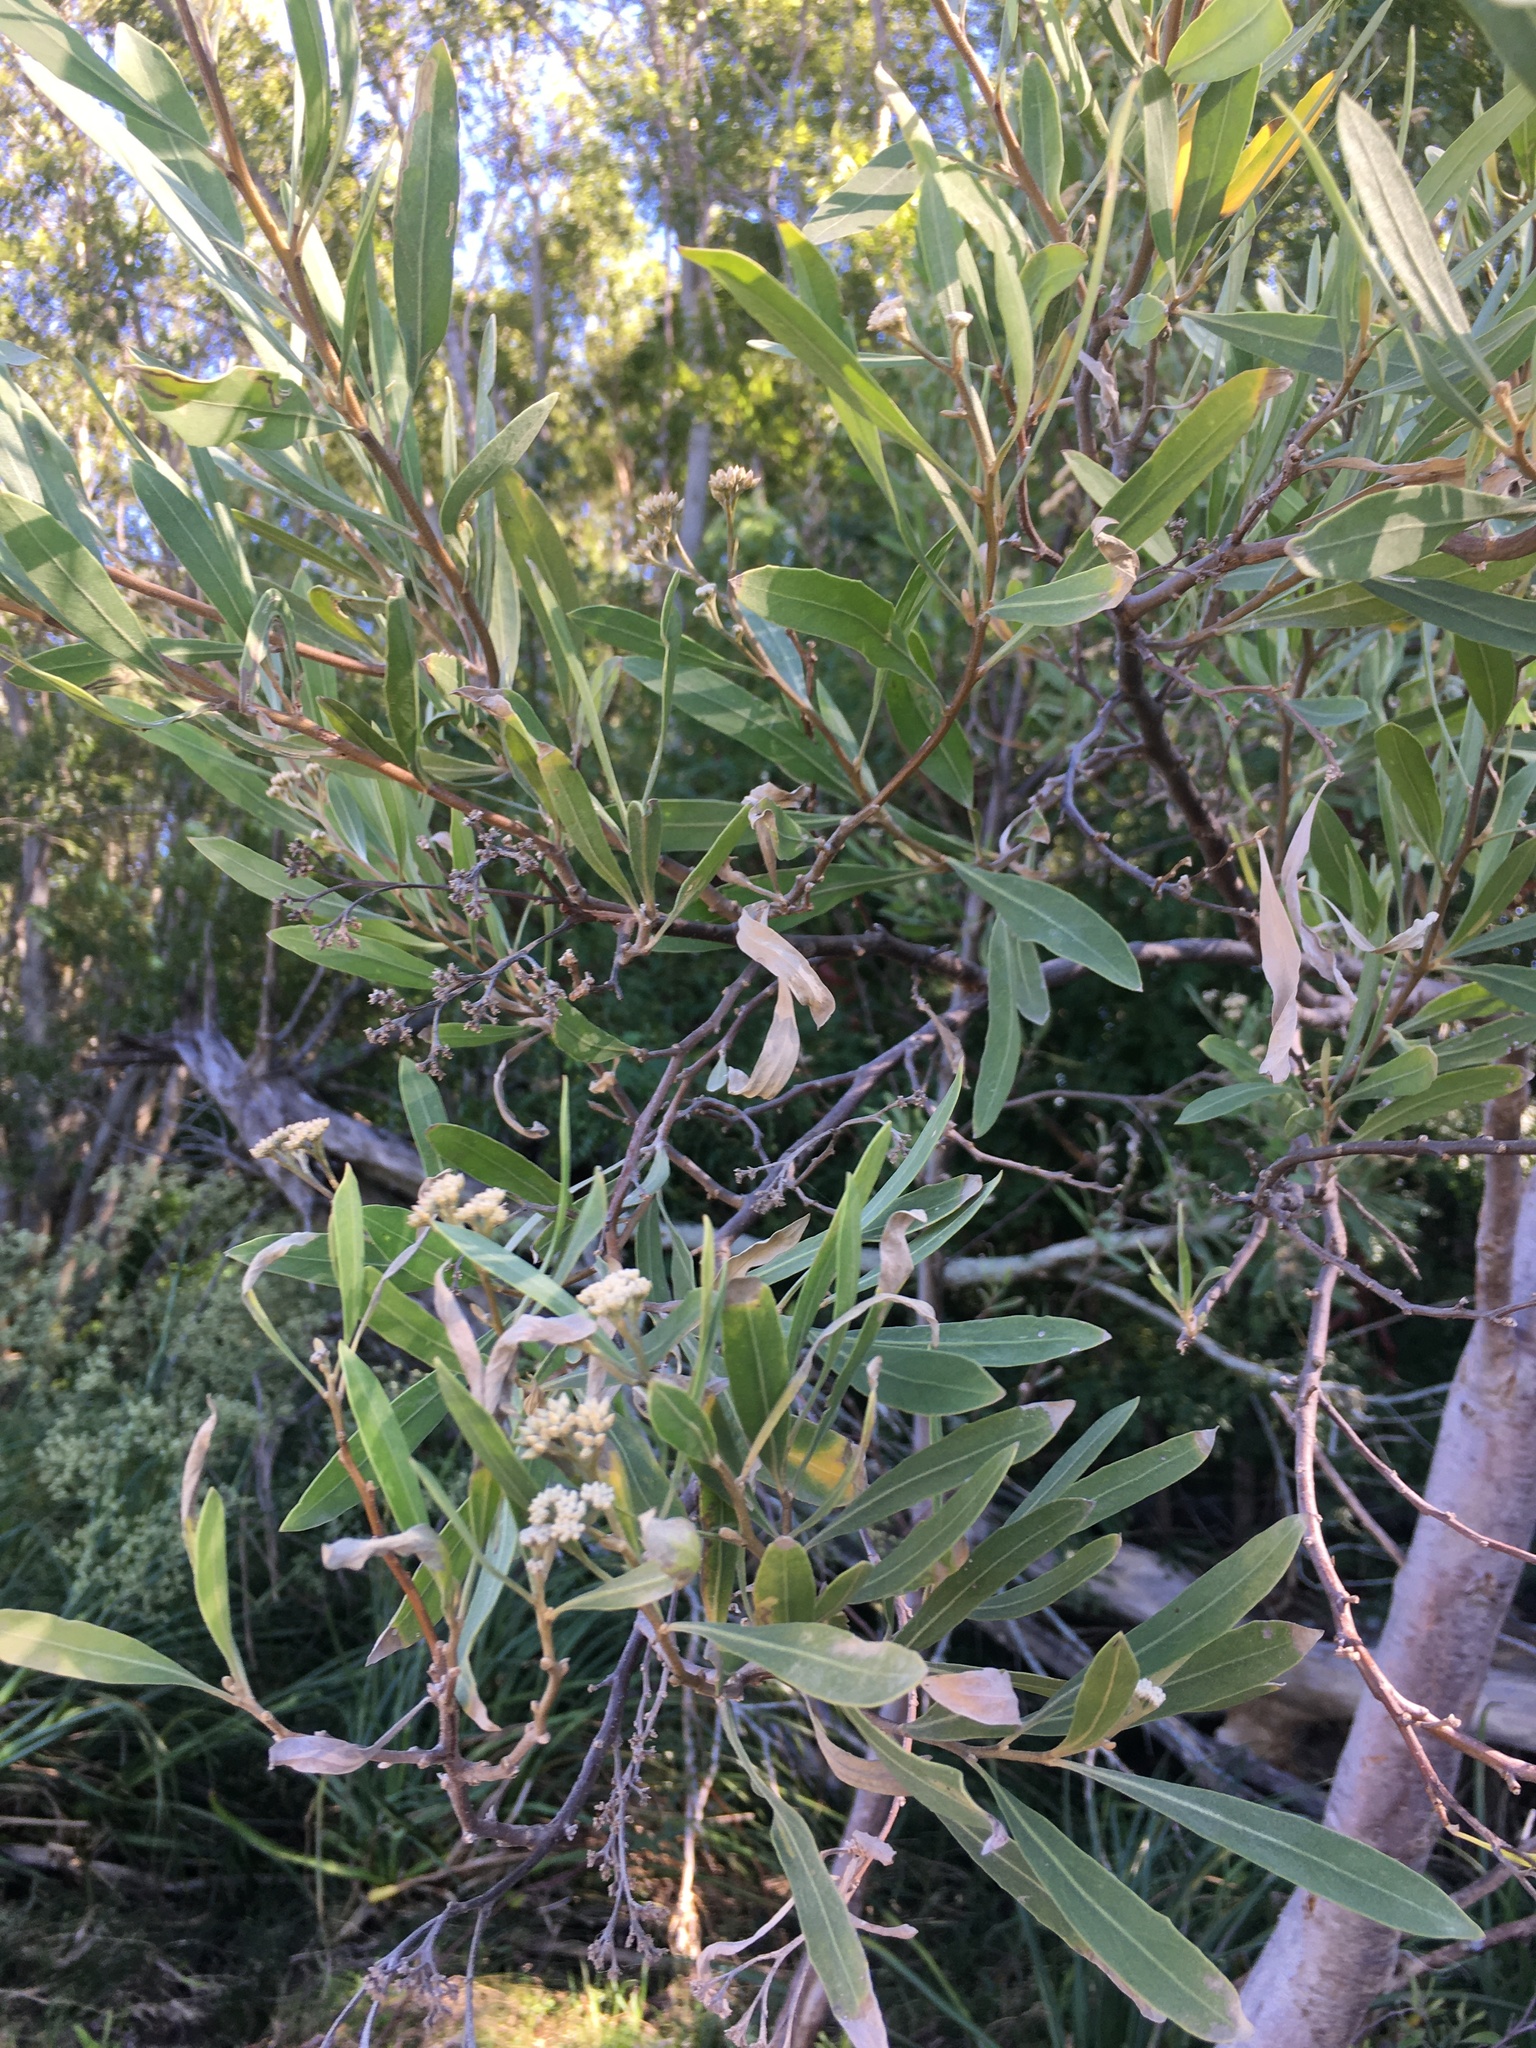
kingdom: Plantae
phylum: Tracheophyta
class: Magnoliopsida
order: Asterales
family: Asteraceae
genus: Tessaria
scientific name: Tessaria integrifolia
